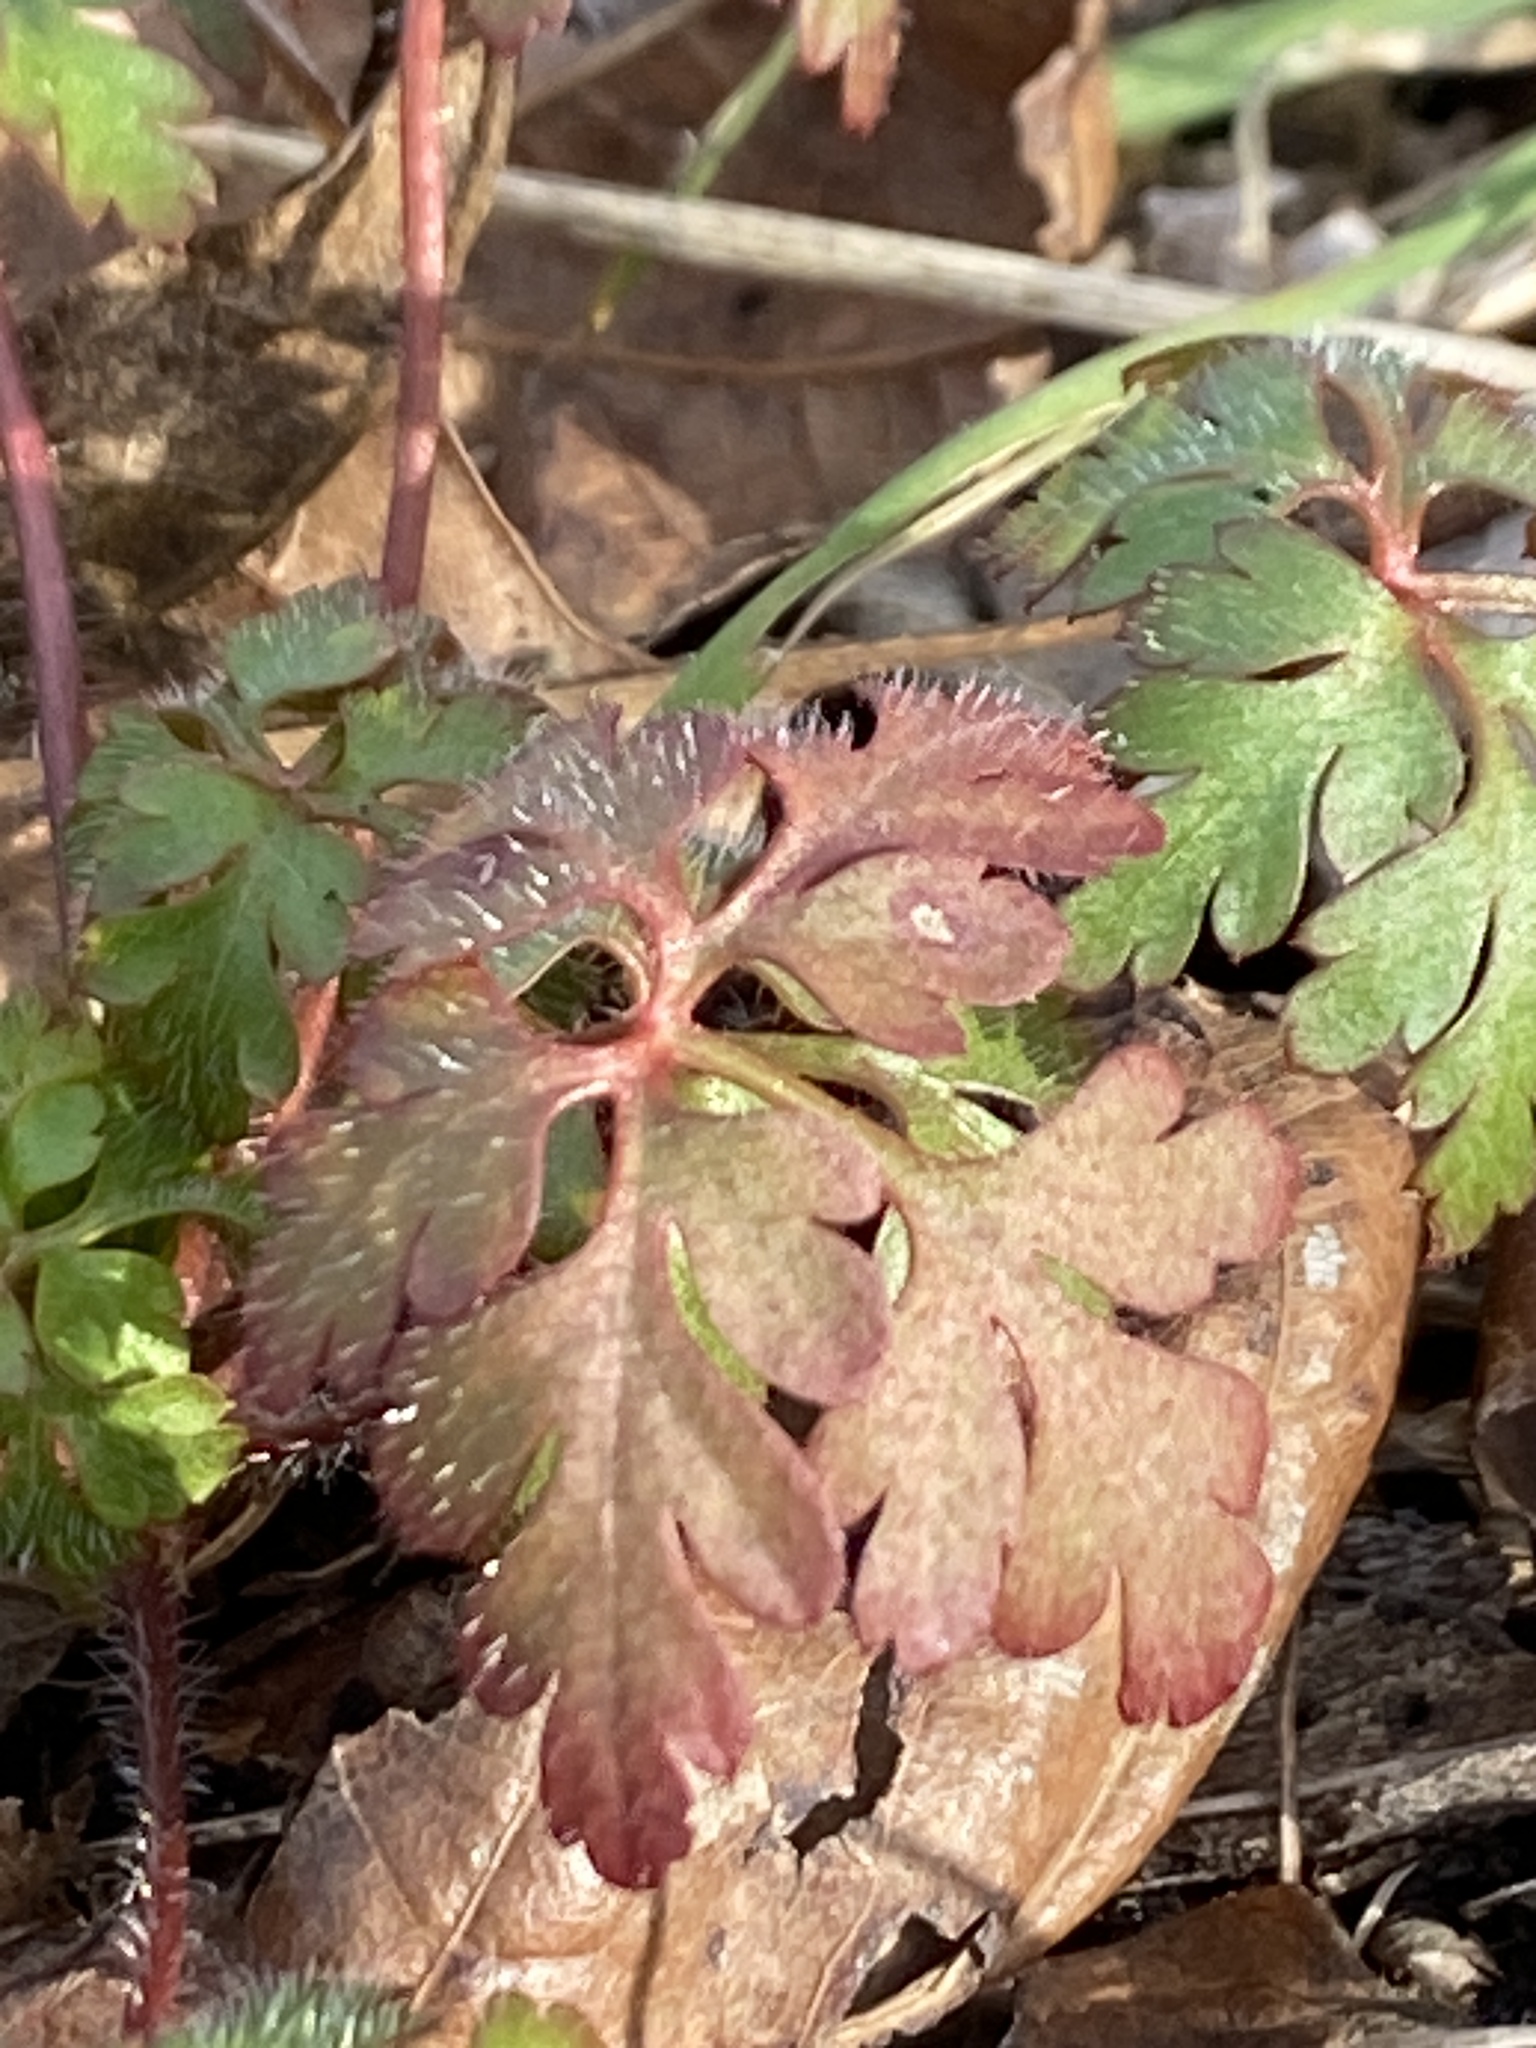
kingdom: Plantae
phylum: Tracheophyta
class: Magnoliopsida
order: Geraniales
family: Geraniaceae
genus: Geranium
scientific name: Geranium robertianum
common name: Herb-robert
